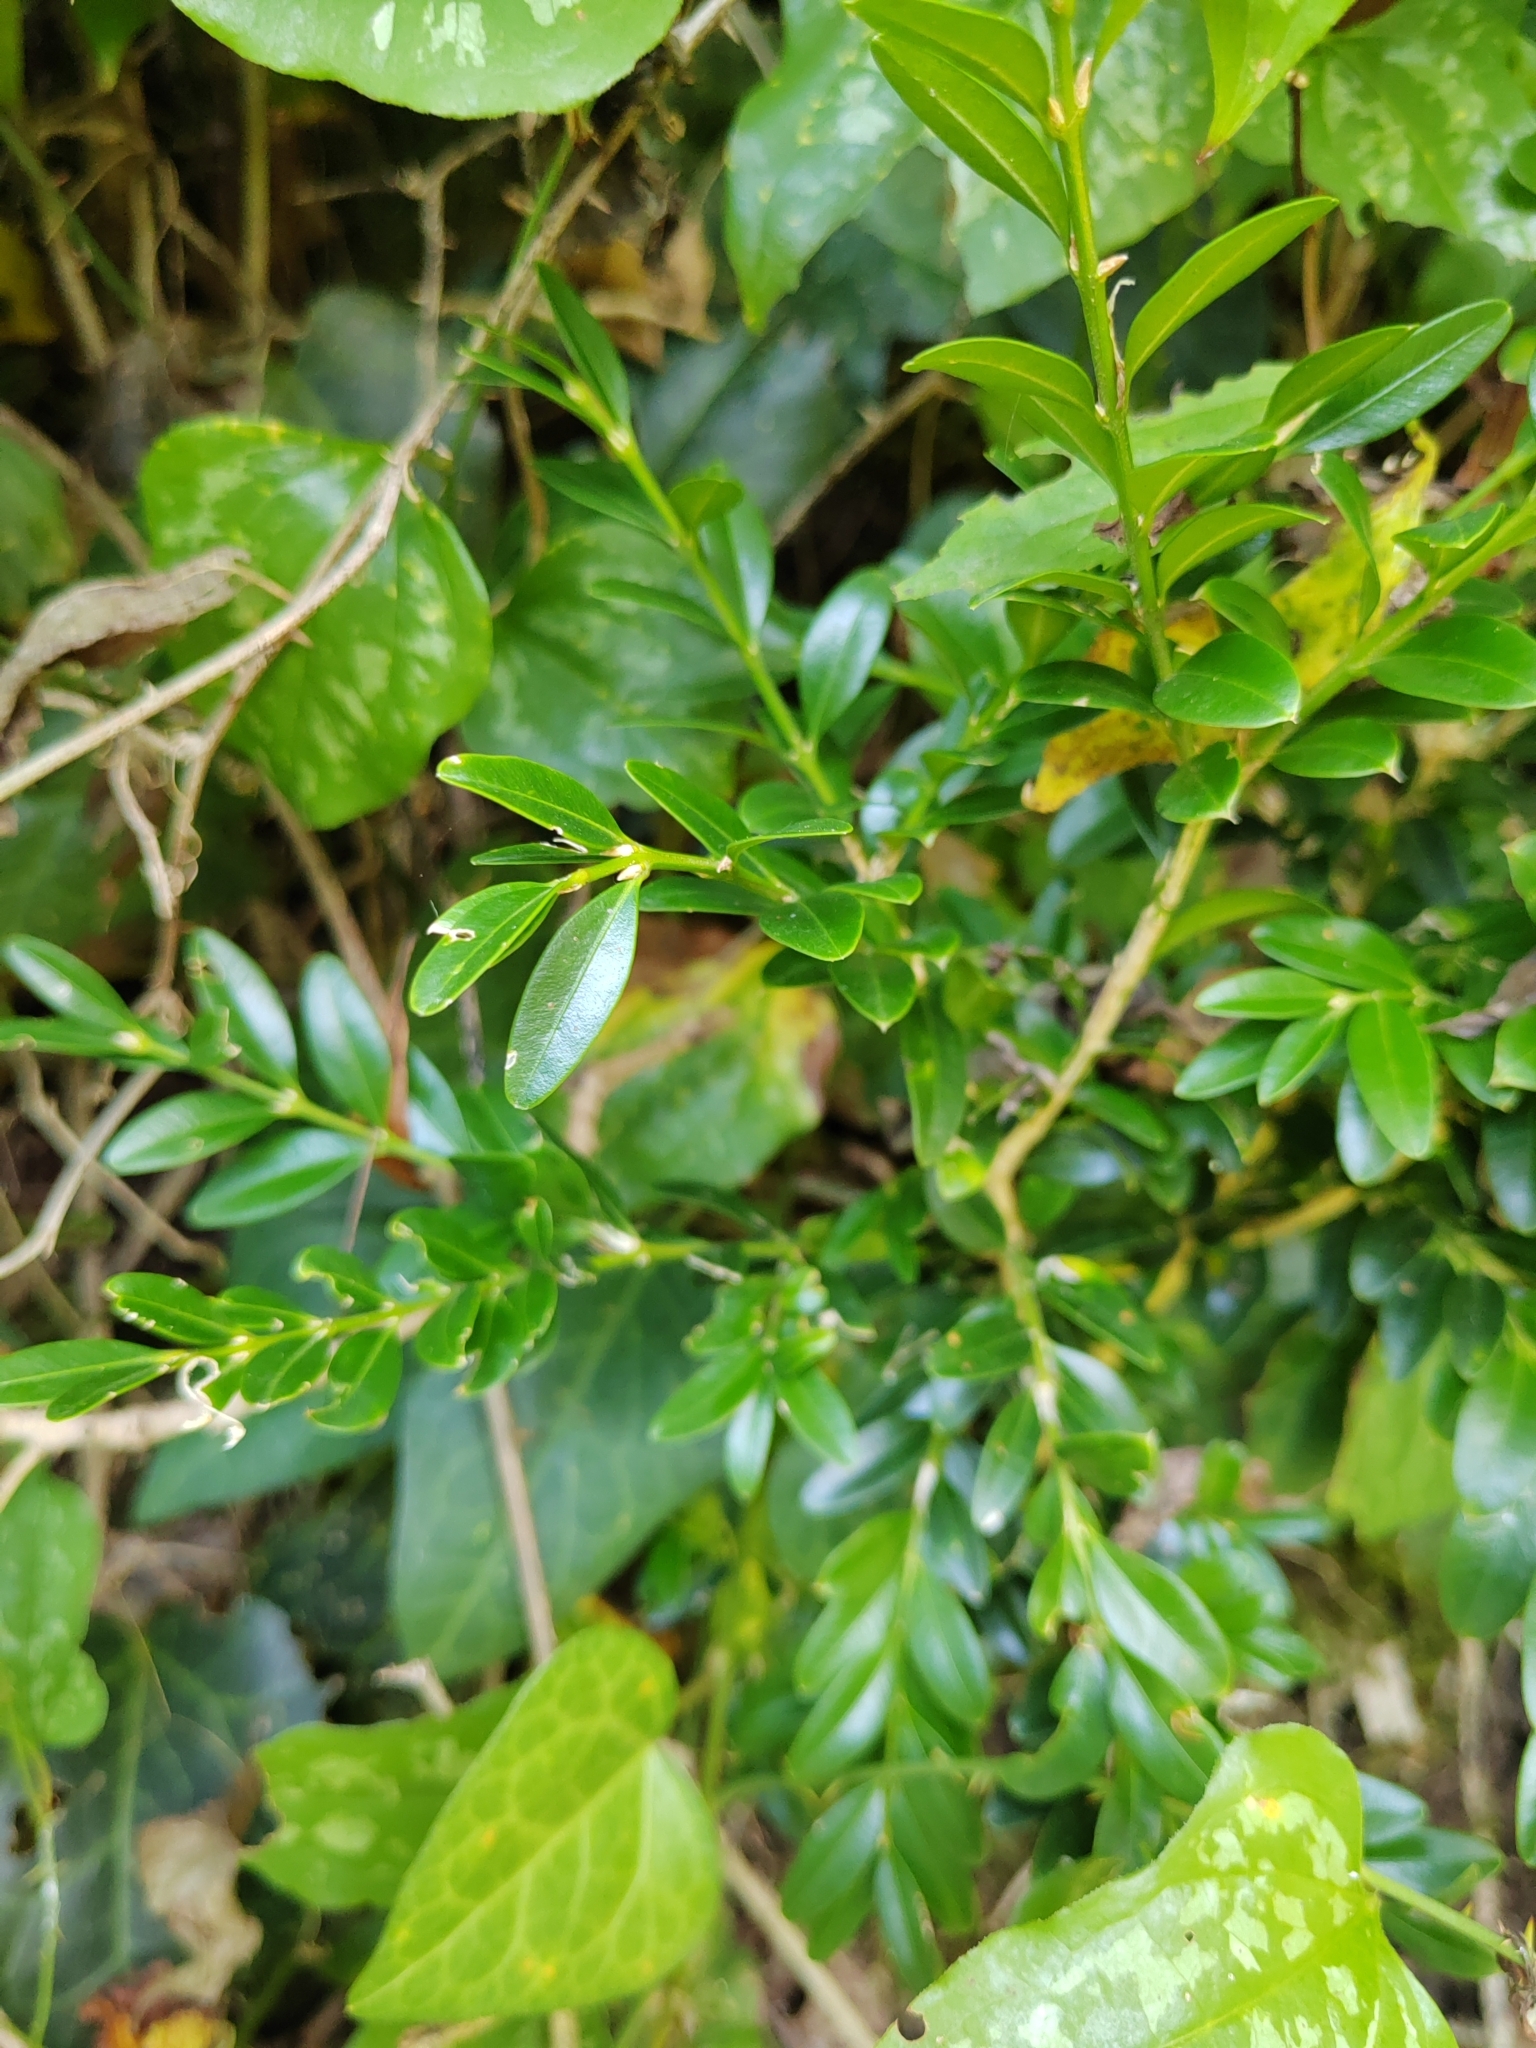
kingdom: Plantae
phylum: Tracheophyta
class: Magnoliopsida
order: Buxales
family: Buxaceae
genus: Buxus
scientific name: Buxus sempervirens
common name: Box
